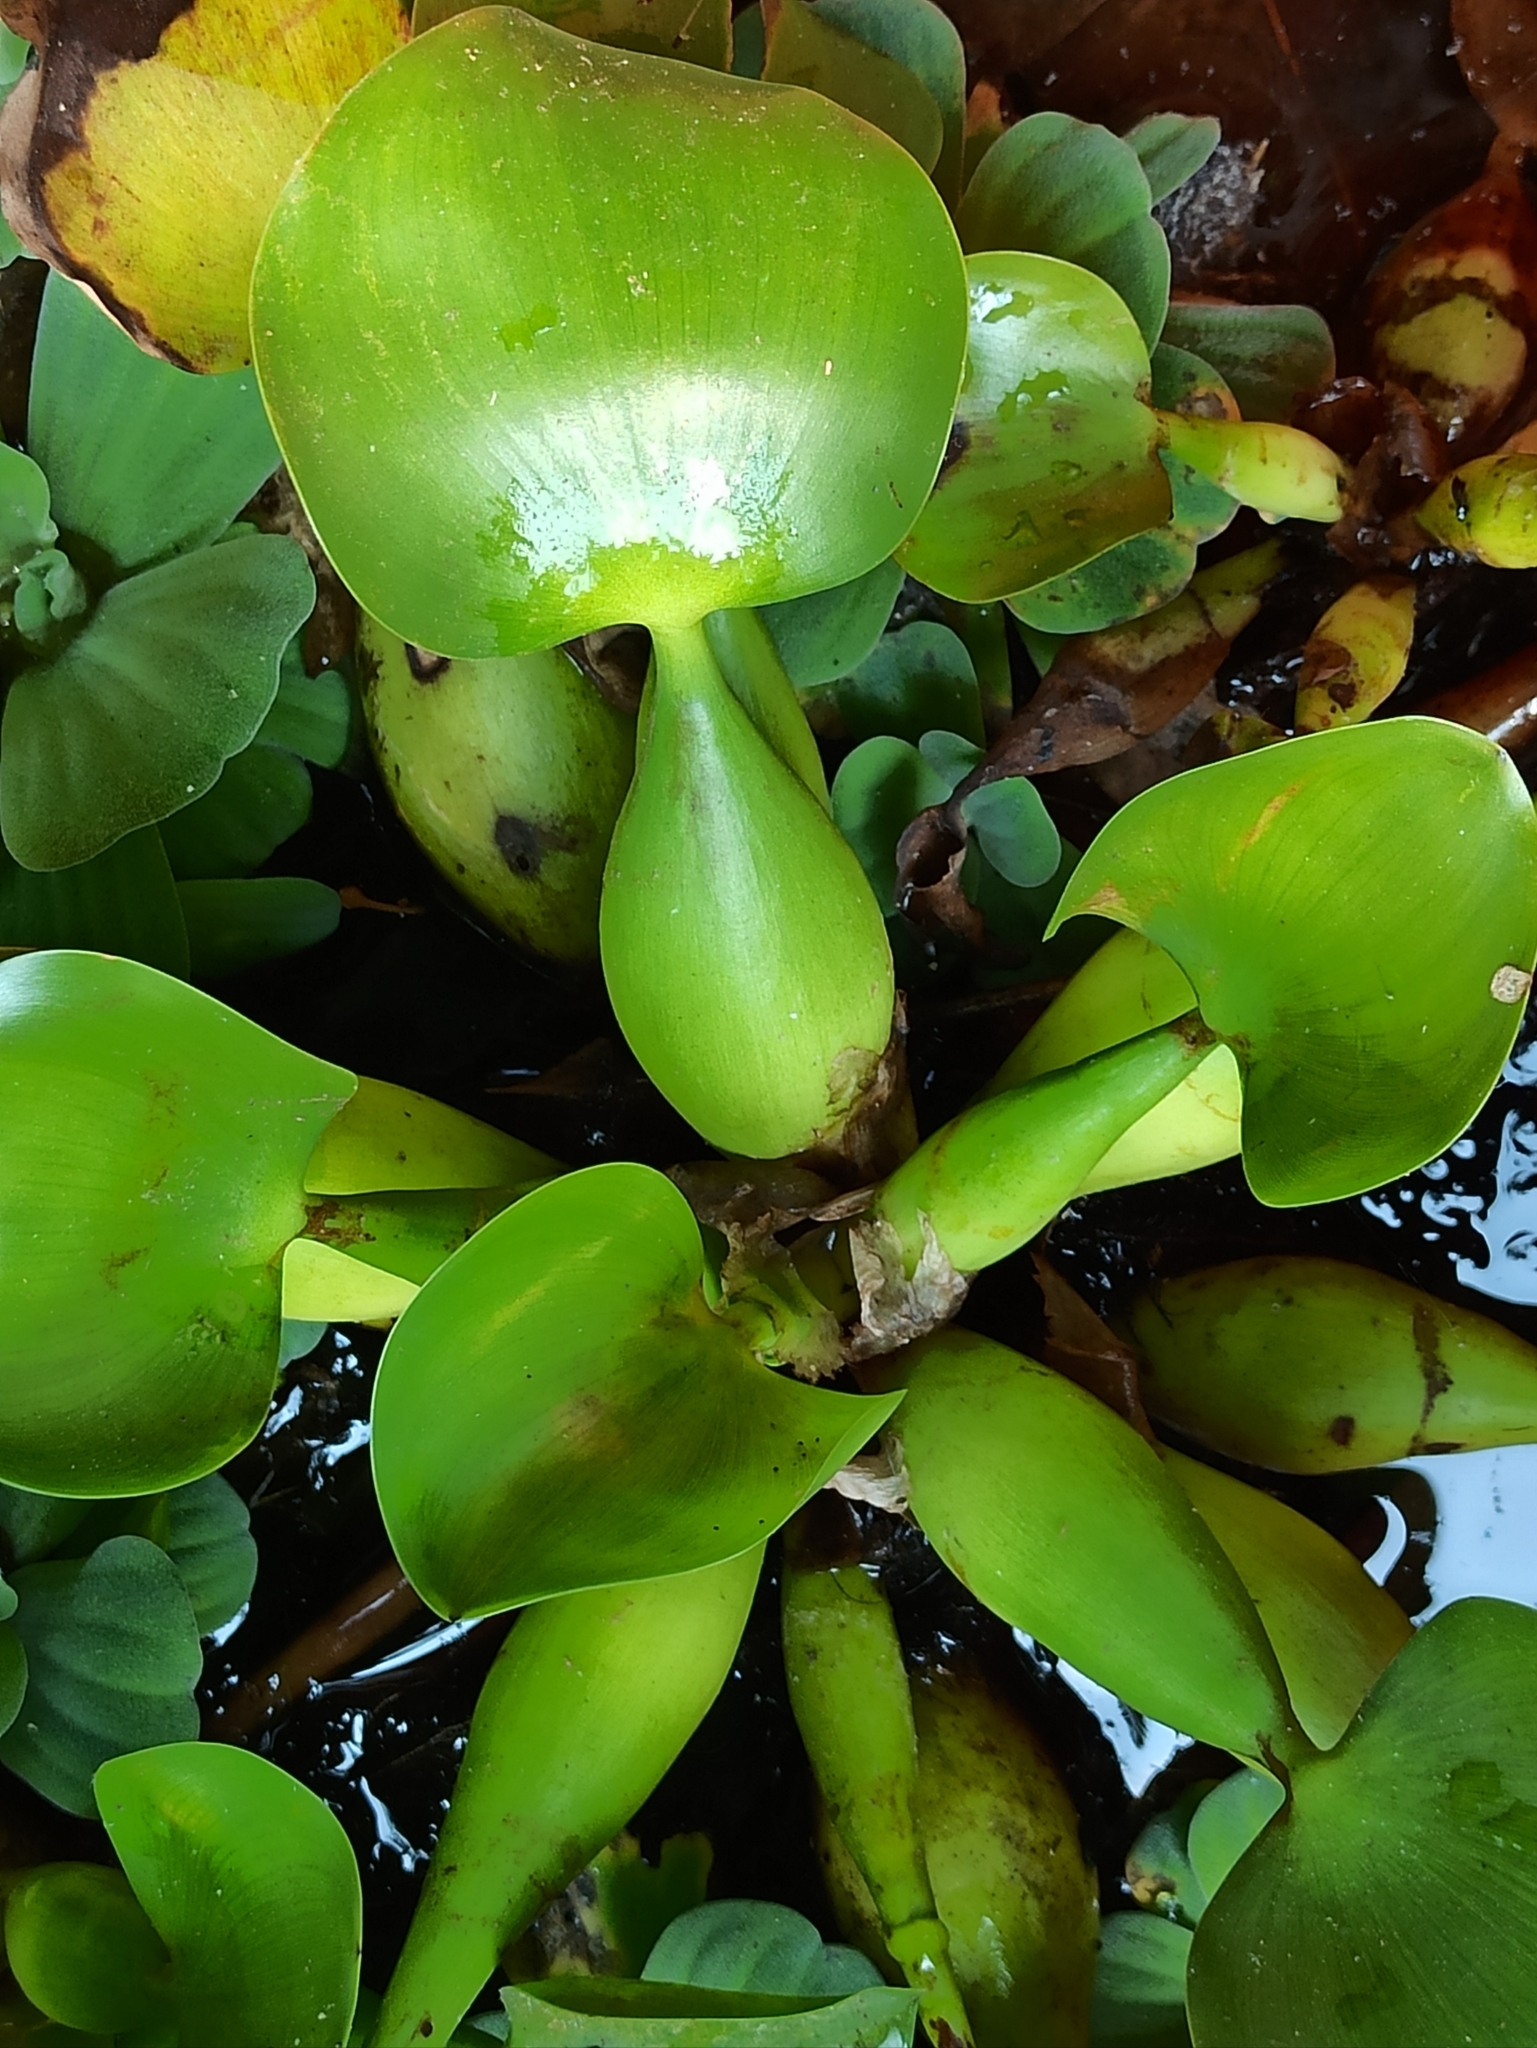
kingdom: Plantae
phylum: Tracheophyta
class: Liliopsida
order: Commelinales
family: Pontederiaceae
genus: Pontederia
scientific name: Pontederia crassipes
